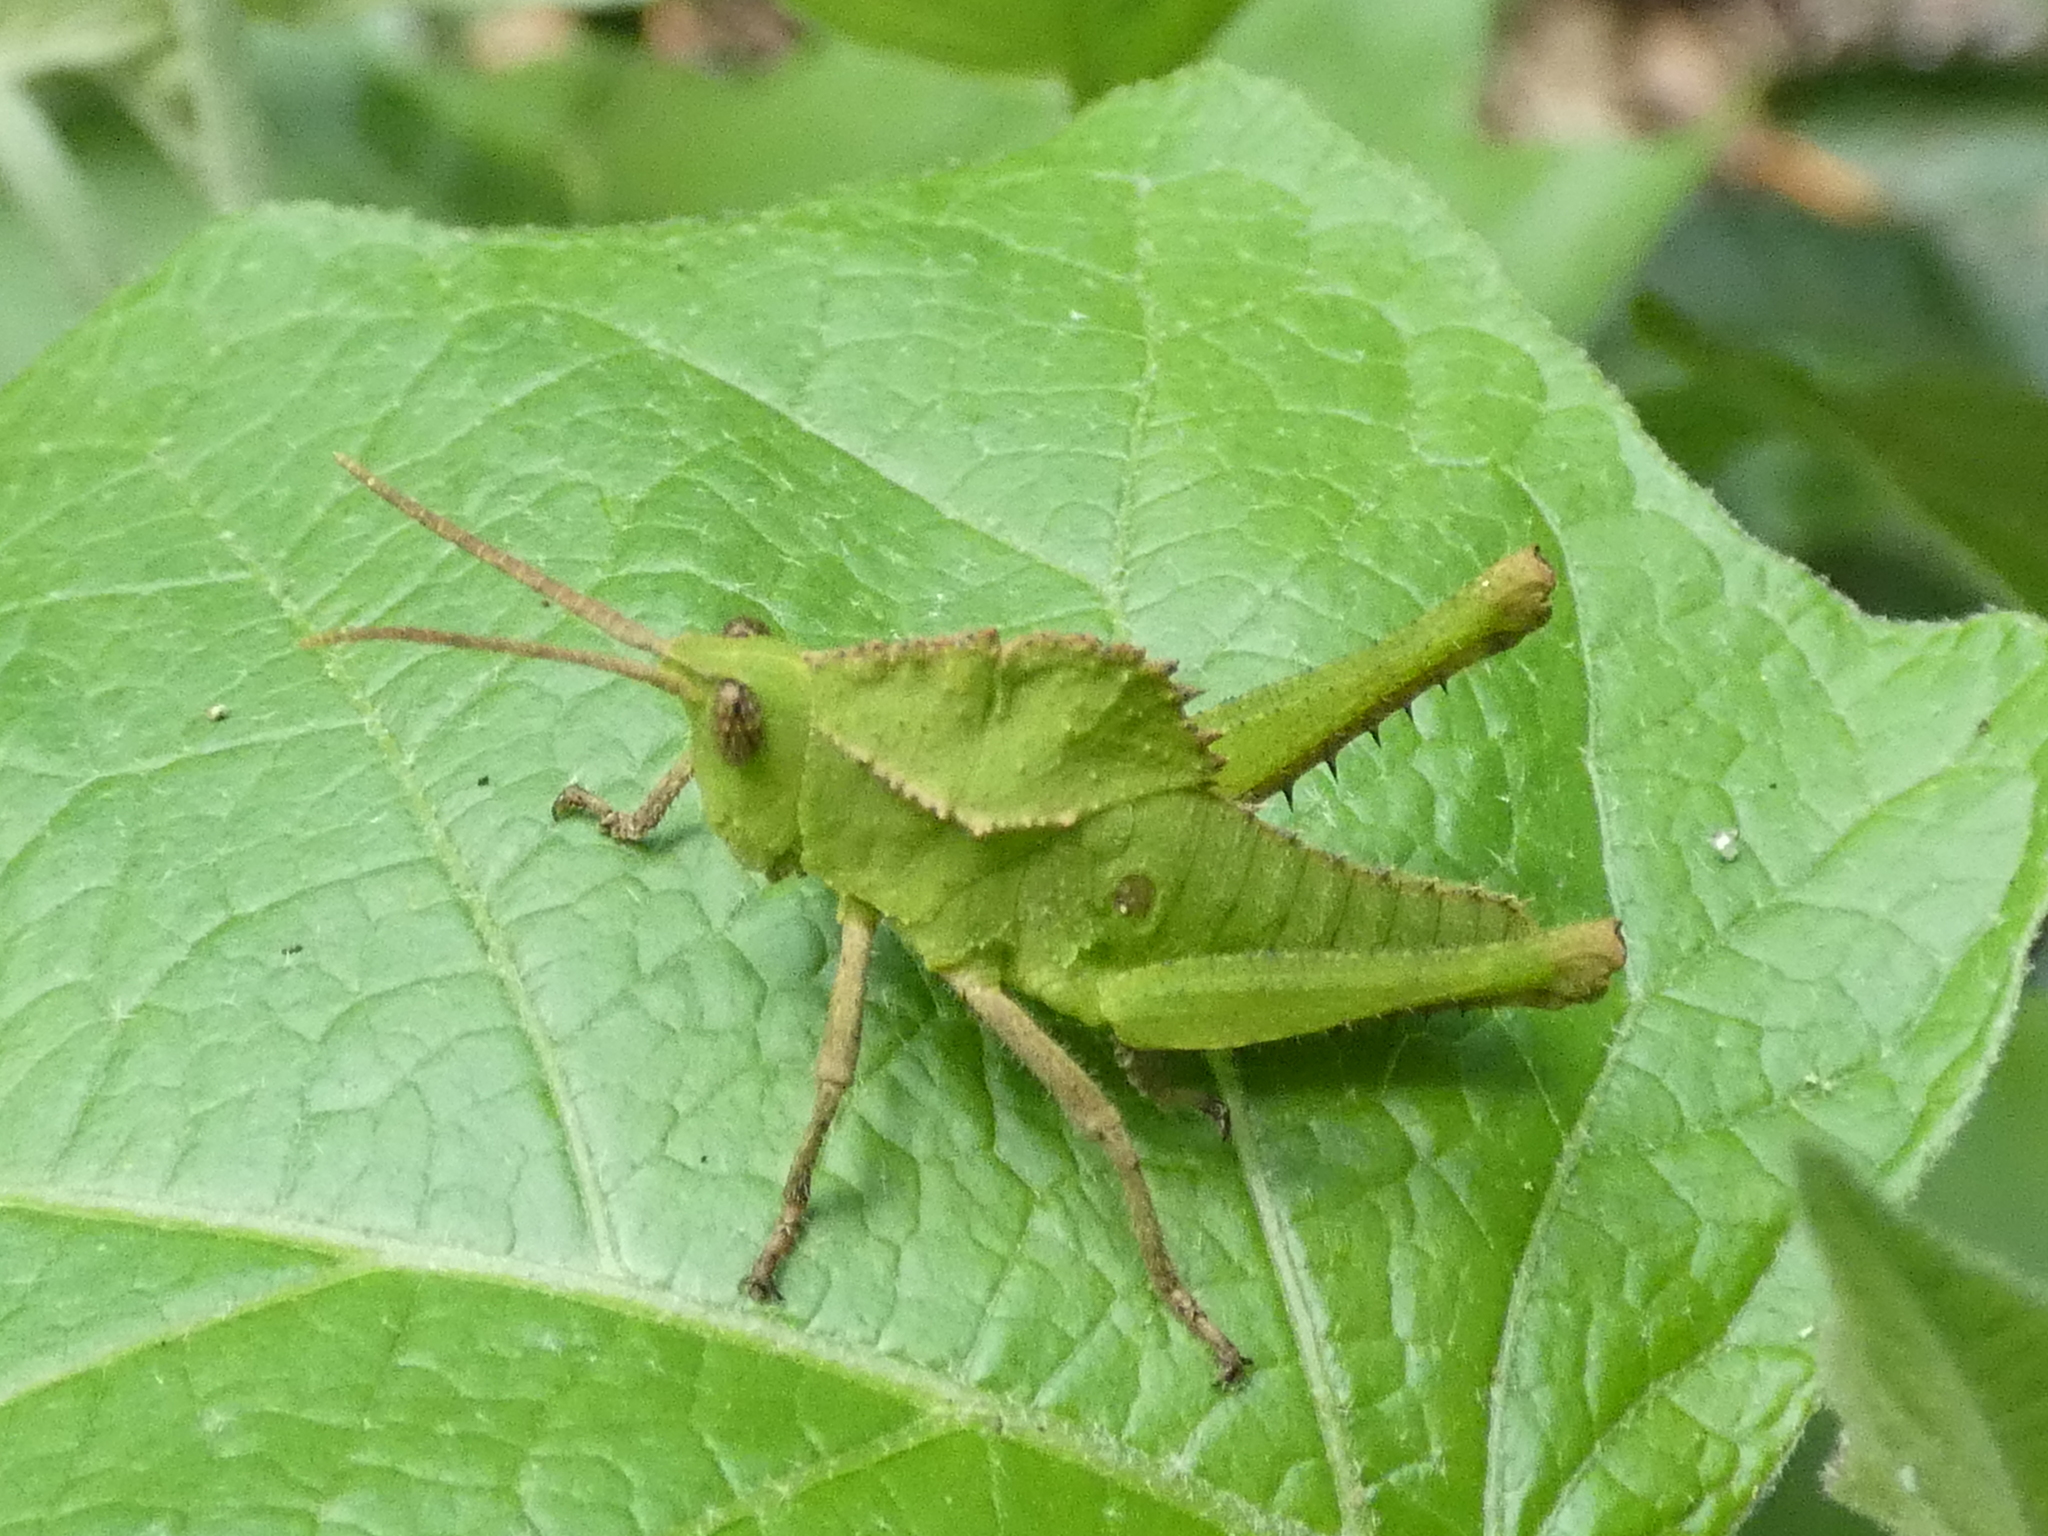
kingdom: Animalia
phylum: Arthropoda
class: Insecta
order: Orthoptera
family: Romaleidae
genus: Helionotus
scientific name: Helionotus mirabilis
